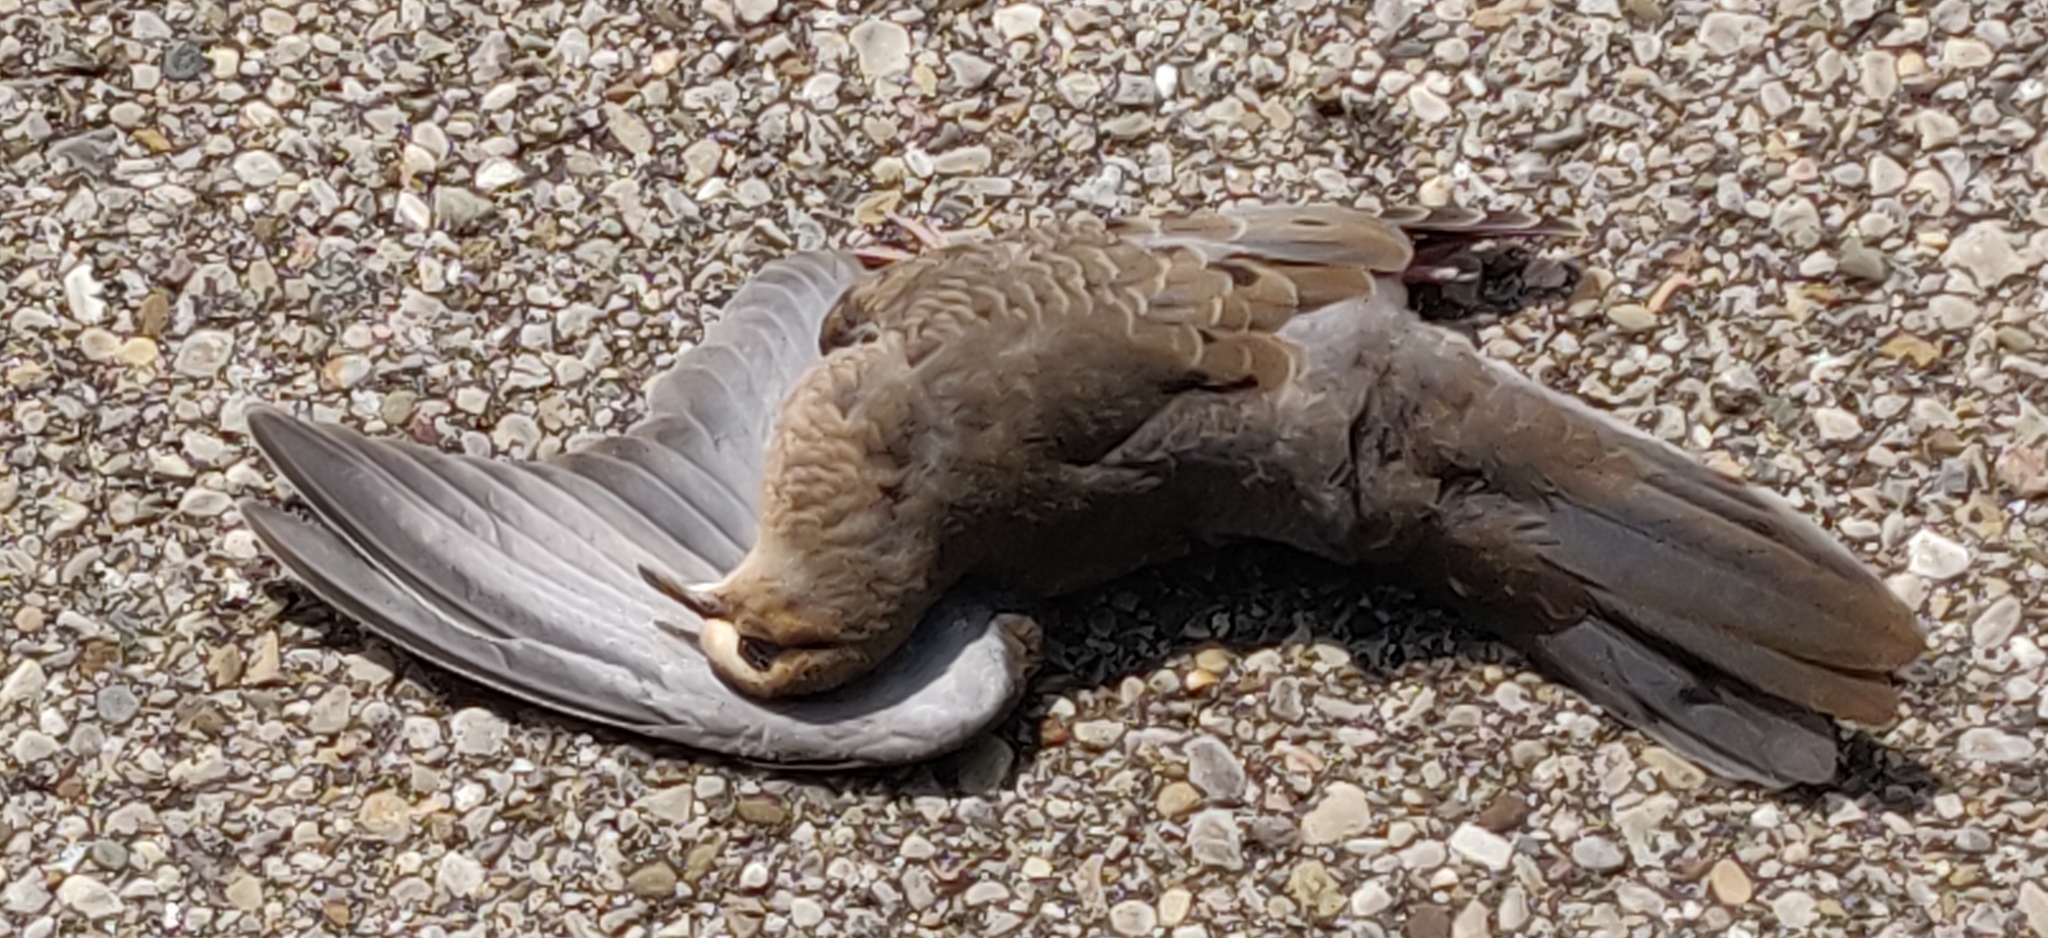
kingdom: Animalia
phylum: Chordata
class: Aves
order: Columbiformes
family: Columbidae
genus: Zenaida
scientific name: Zenaida macroura
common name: Mourning dove
